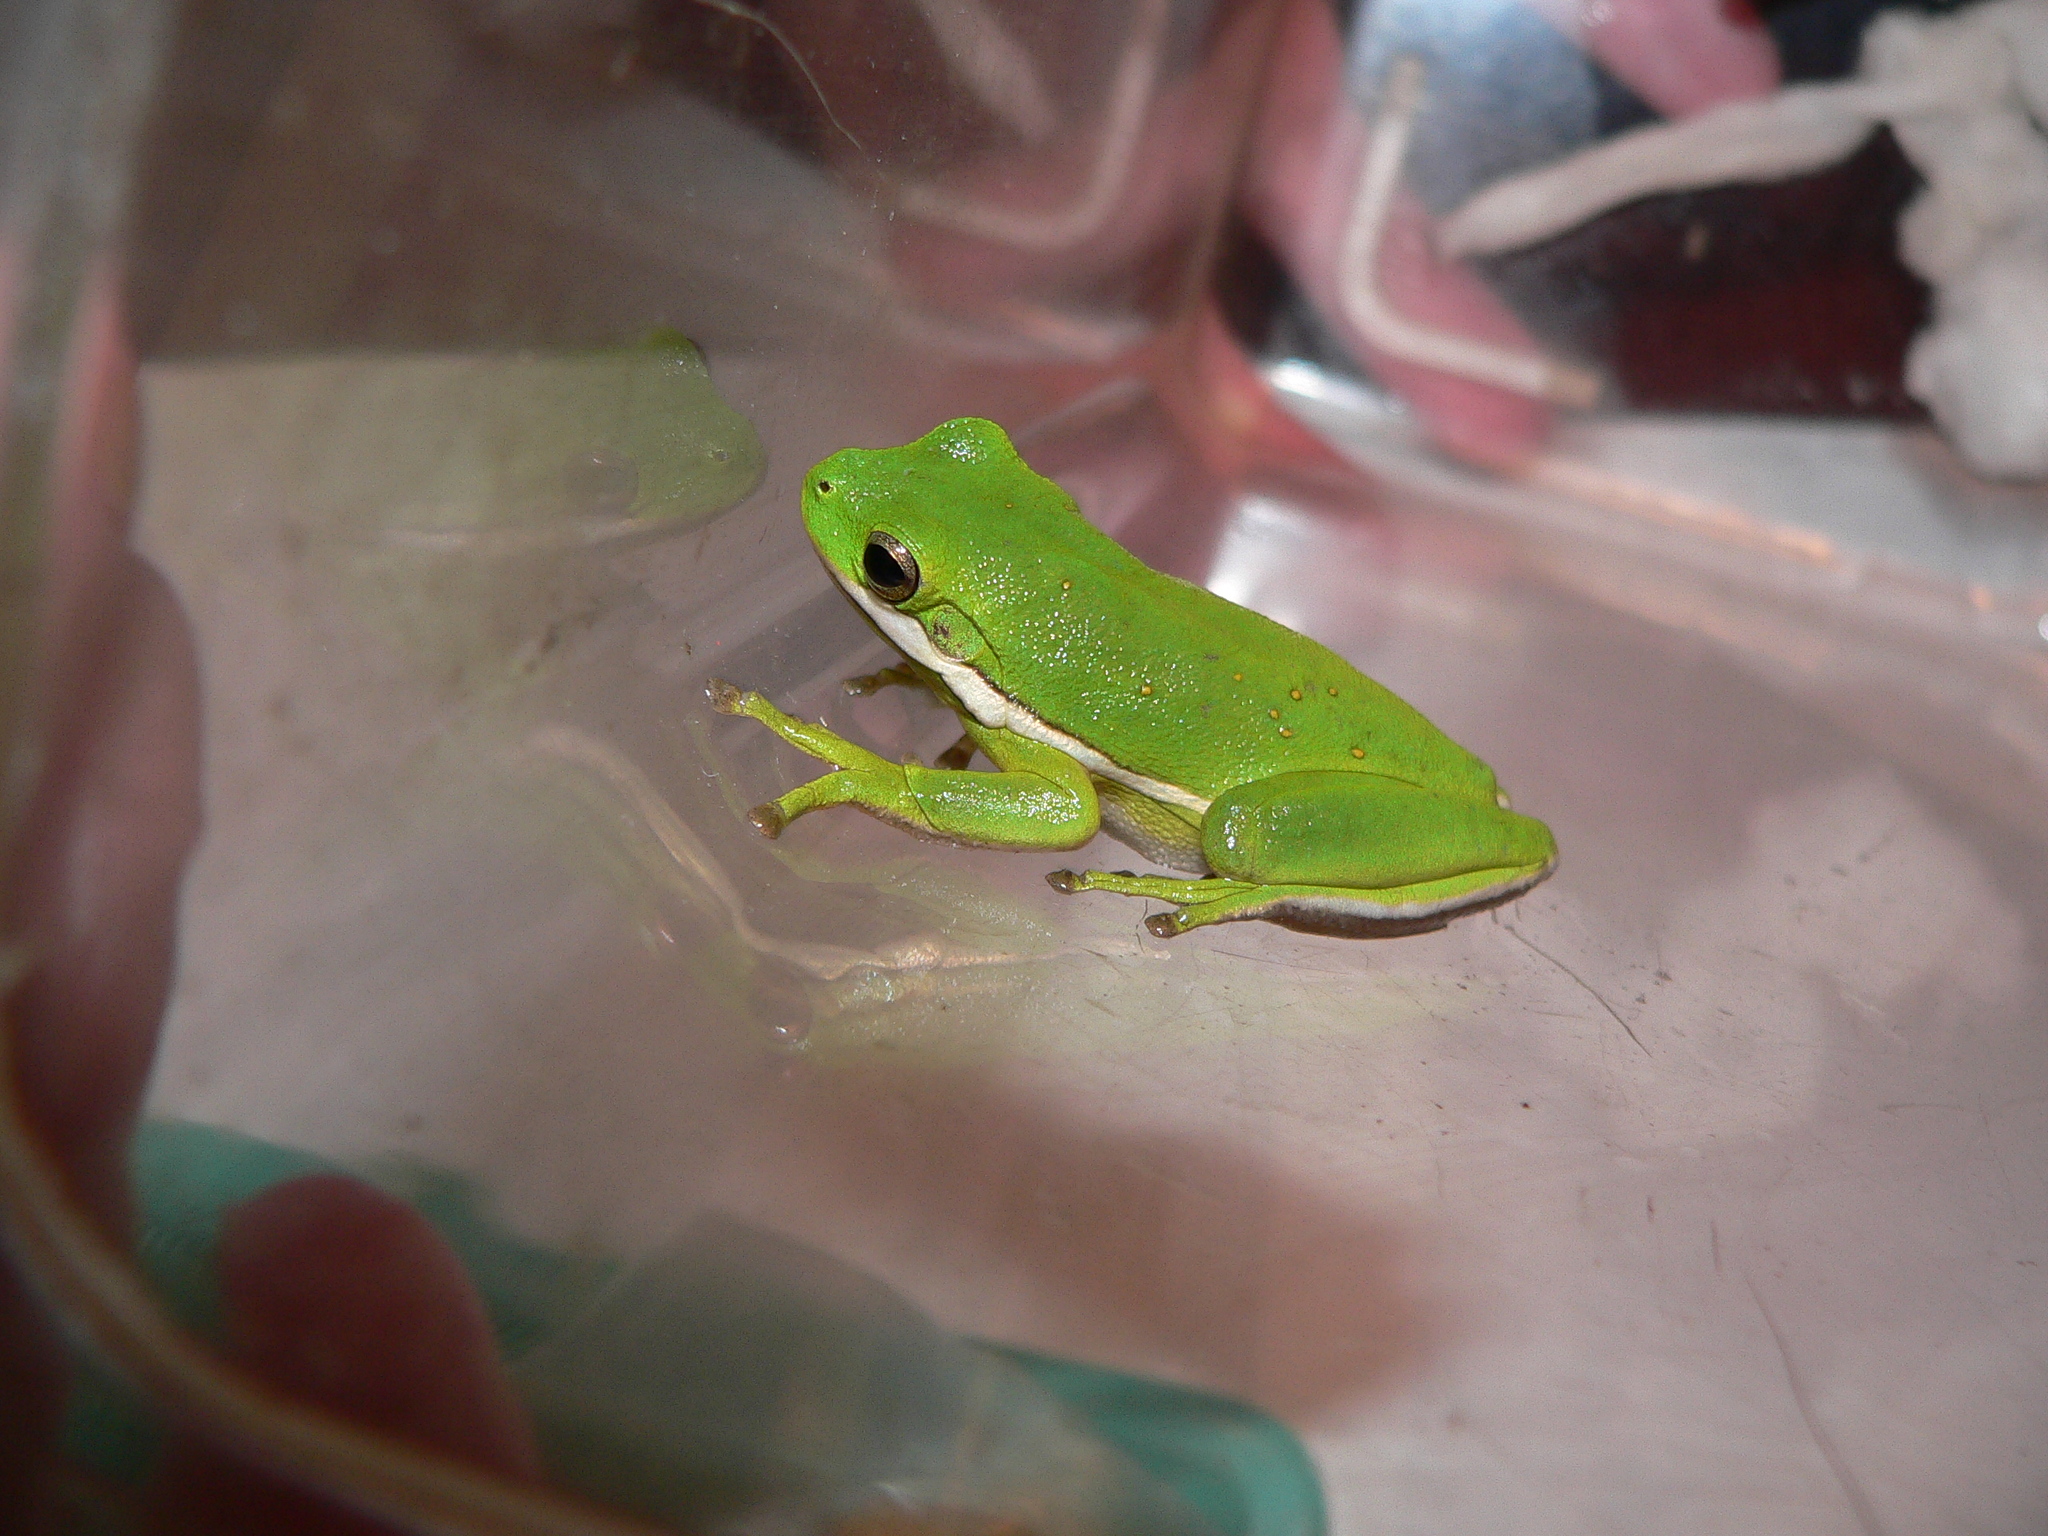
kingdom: Animalia
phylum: Chordata
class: Amphibia
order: Anura
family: Hylidae
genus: Dryophytes
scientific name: Dryophytes cinereus
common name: Green treefrog
